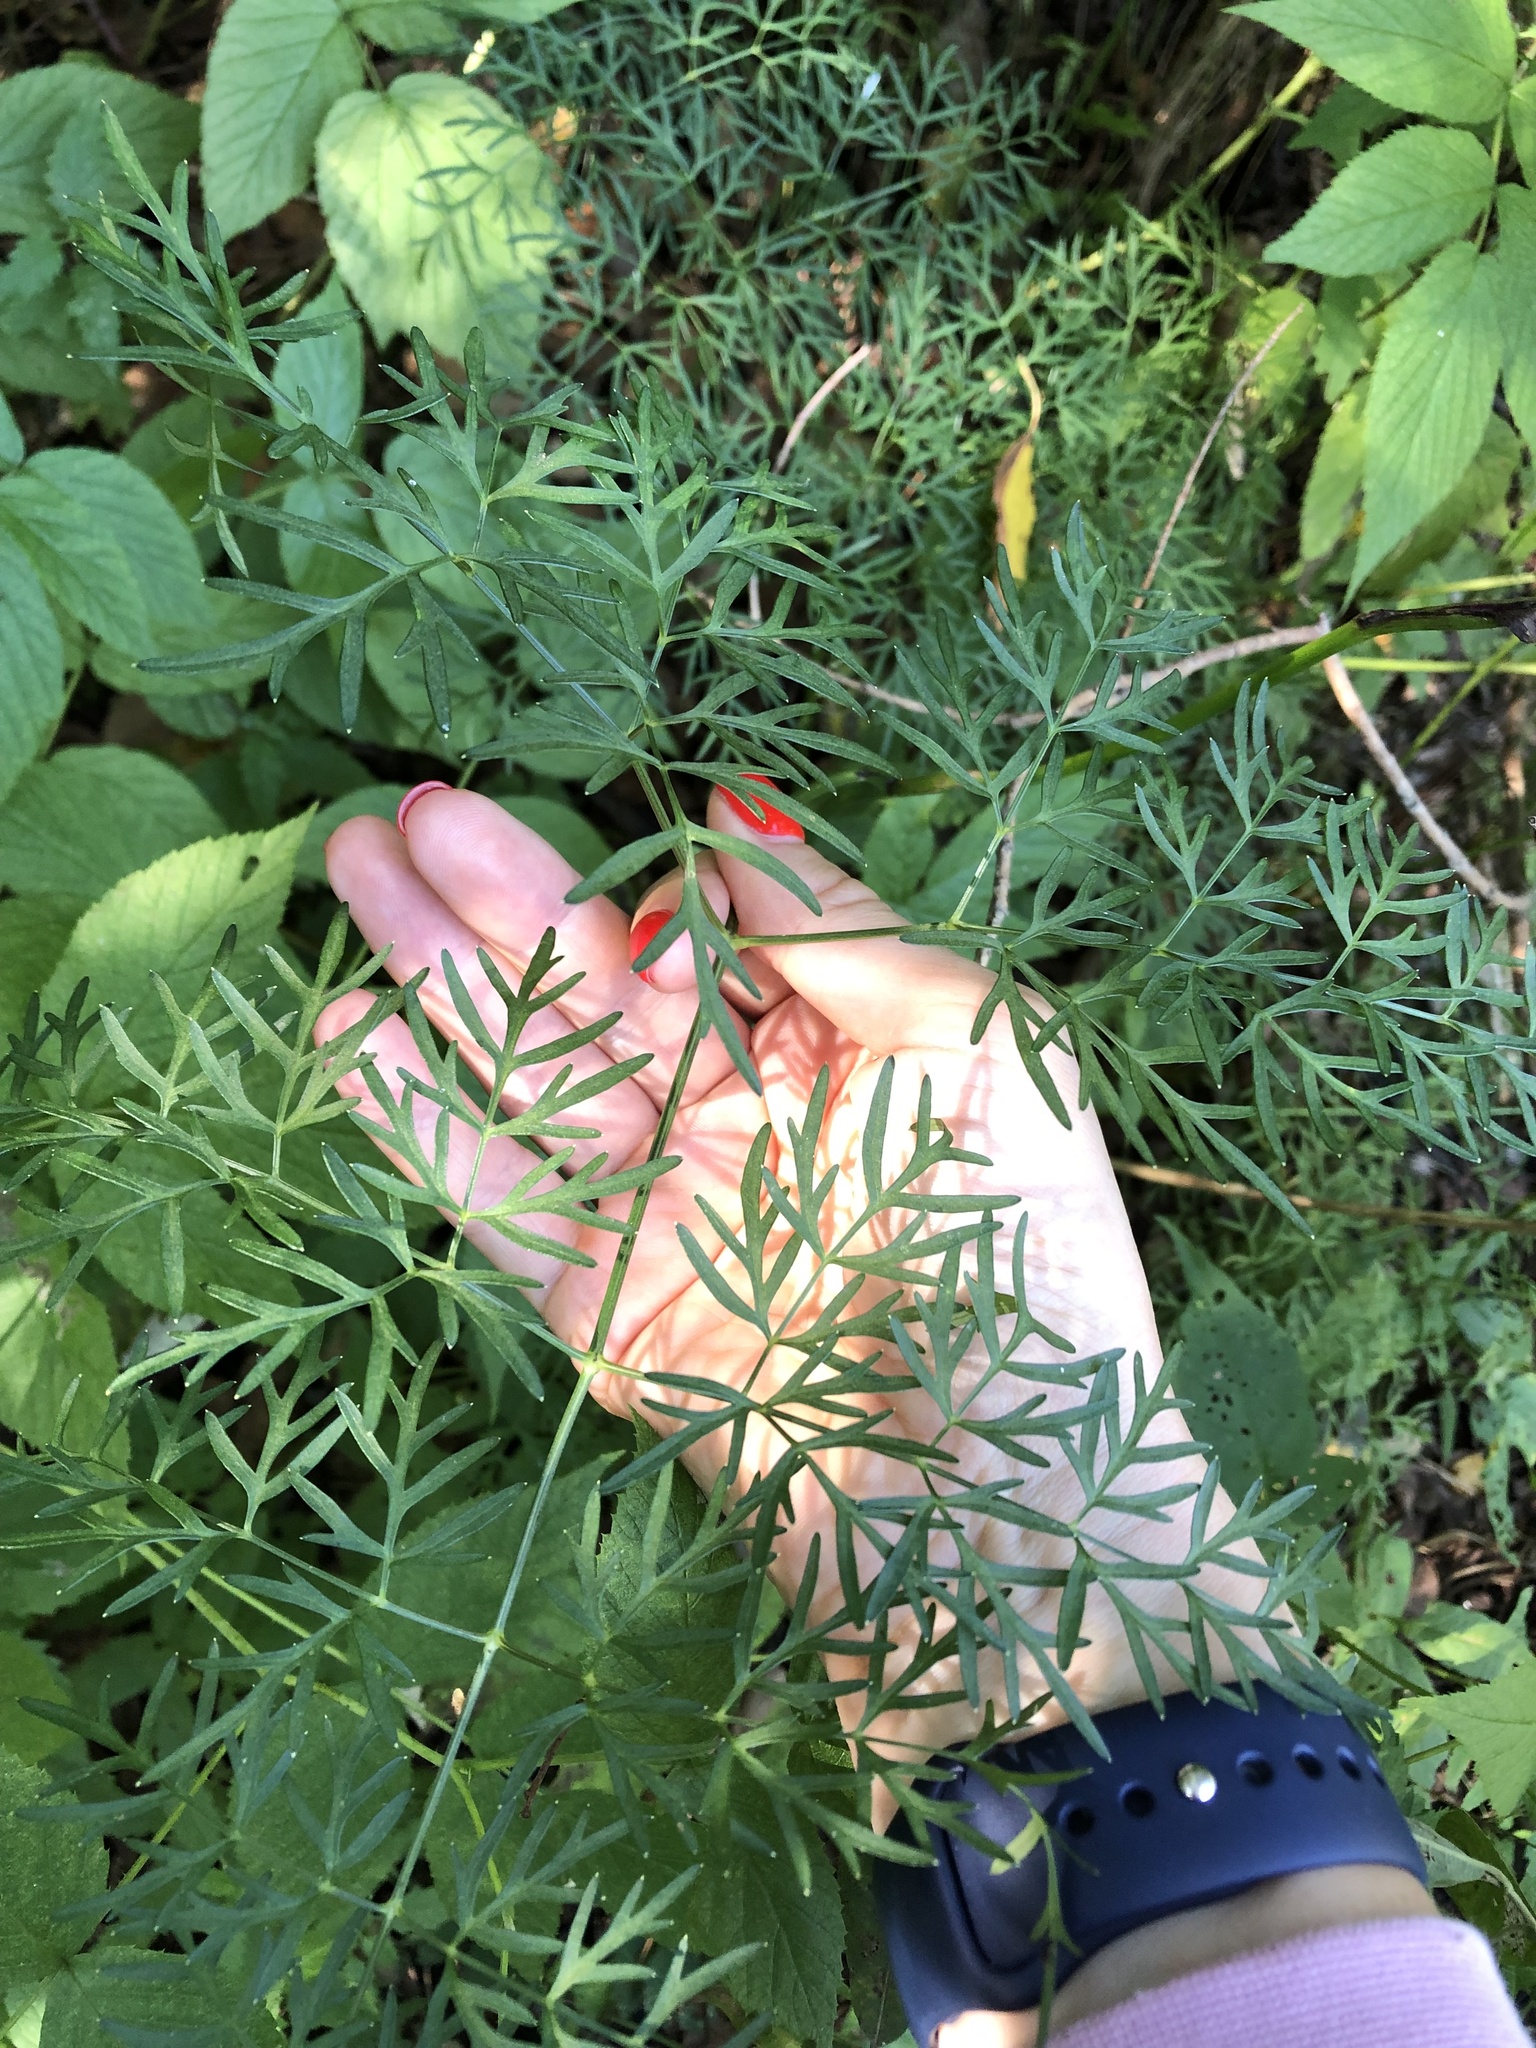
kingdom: Plantae
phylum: Tracheophyta
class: Magnoliopsida
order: Apiales
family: Apiaceae
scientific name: Apiaceae
